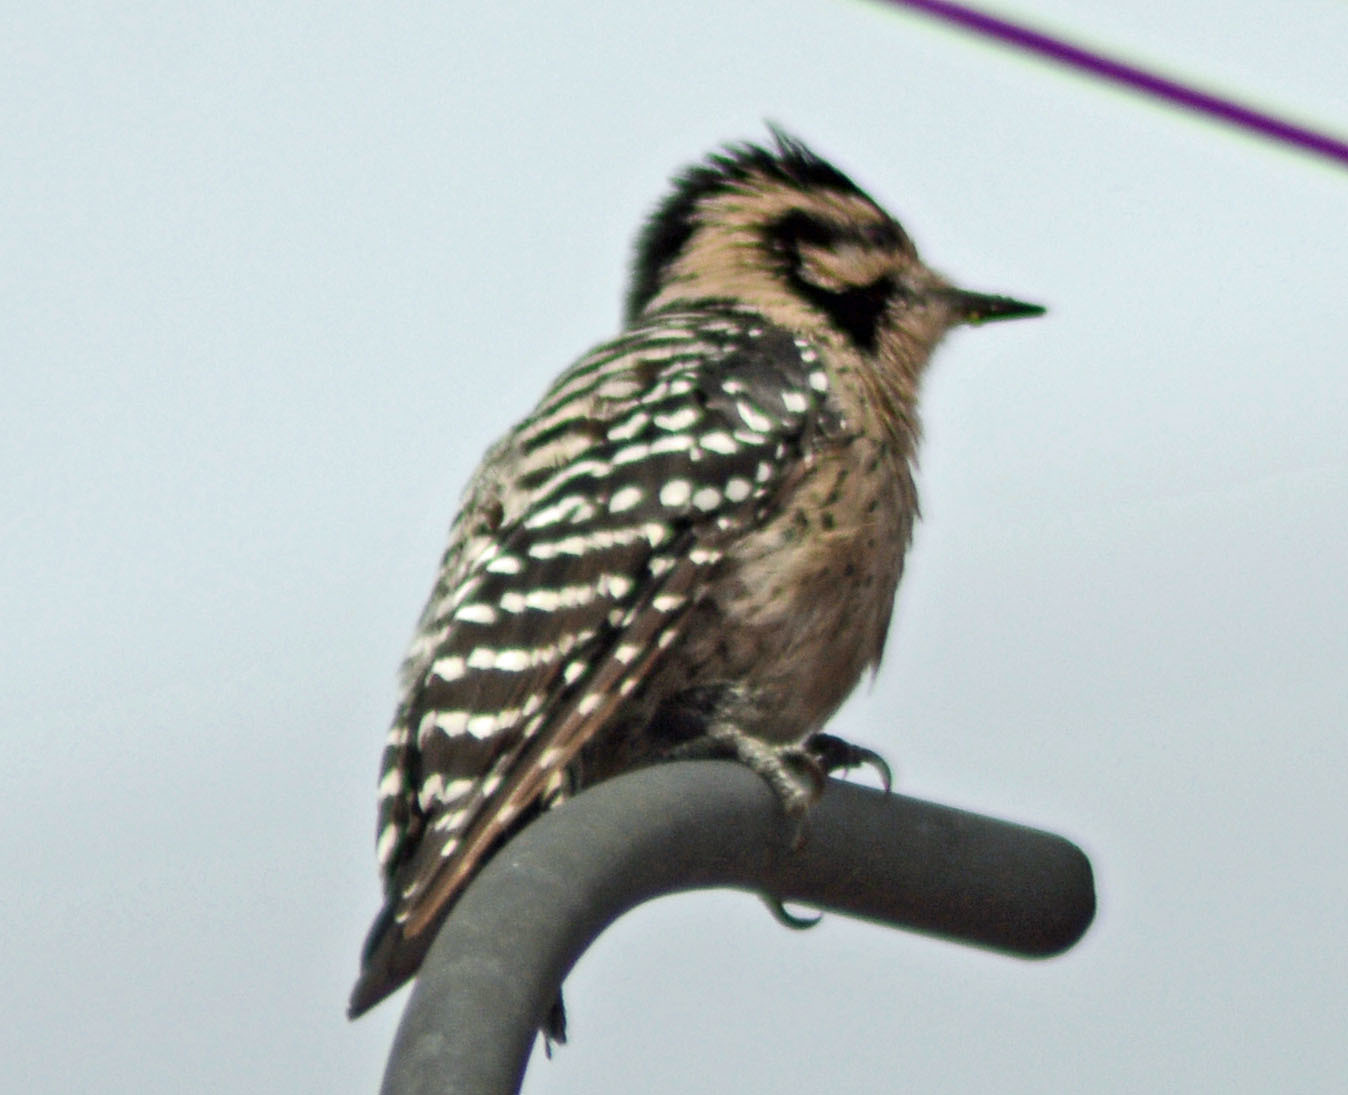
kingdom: Animalia
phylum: Chordata
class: Aves
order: Piciformes
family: Picidae
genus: Dryobates
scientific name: Dryobates scalaris
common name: Ladder-backed woodpecker
